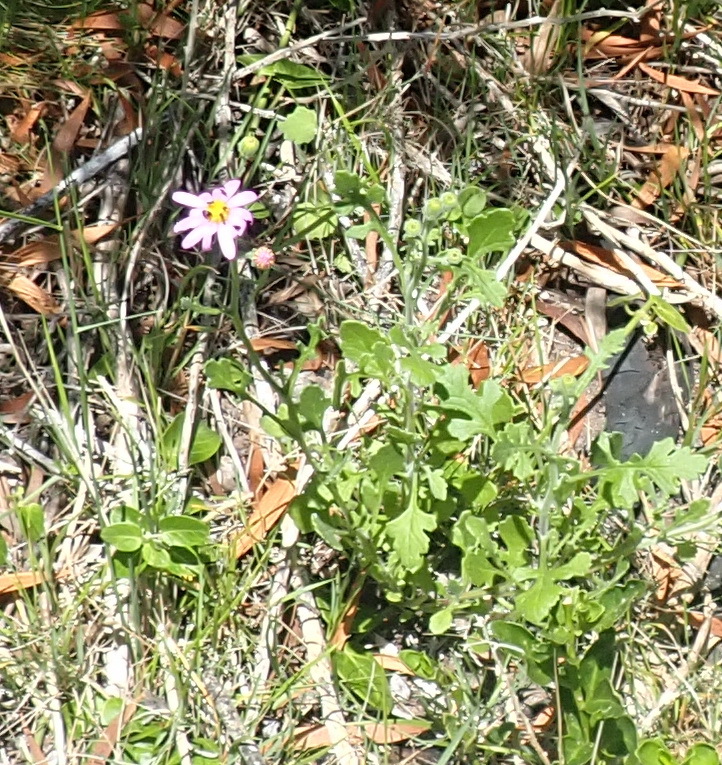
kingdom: Plantae
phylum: Tracheophyta
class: Magnoliopsida
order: Asterales
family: Asteraceae
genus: Senecio
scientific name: Senecio elegans
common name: Purple groundsel
